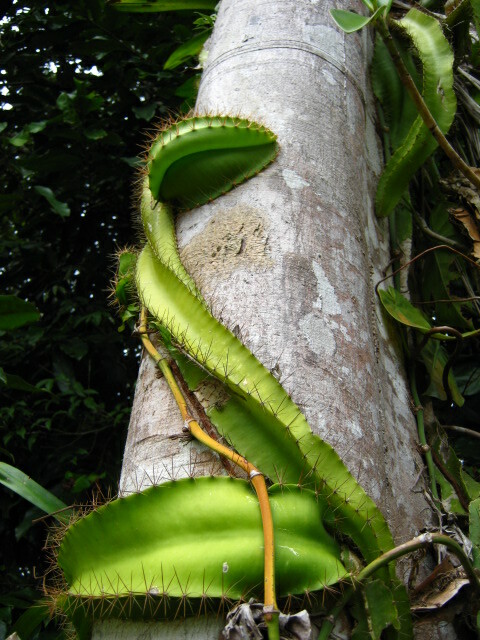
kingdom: Plantae
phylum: Tracheophyta
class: Magnoliopsida
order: Caryophyllales
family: Cactaceae
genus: Deamia
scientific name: Deamia testudo
